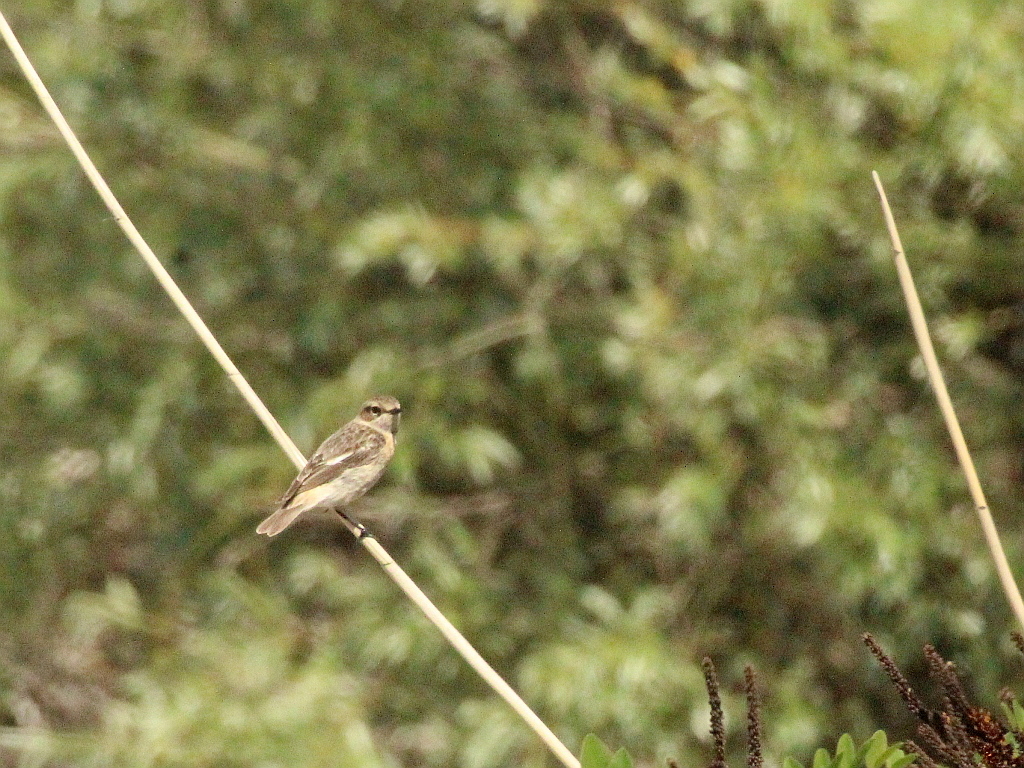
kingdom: Animalia
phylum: Chordata
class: Aves
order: Passeriformes
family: Muscicapidae
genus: Saxicola
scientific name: Saxicola maurus
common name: Siberian stonechat
